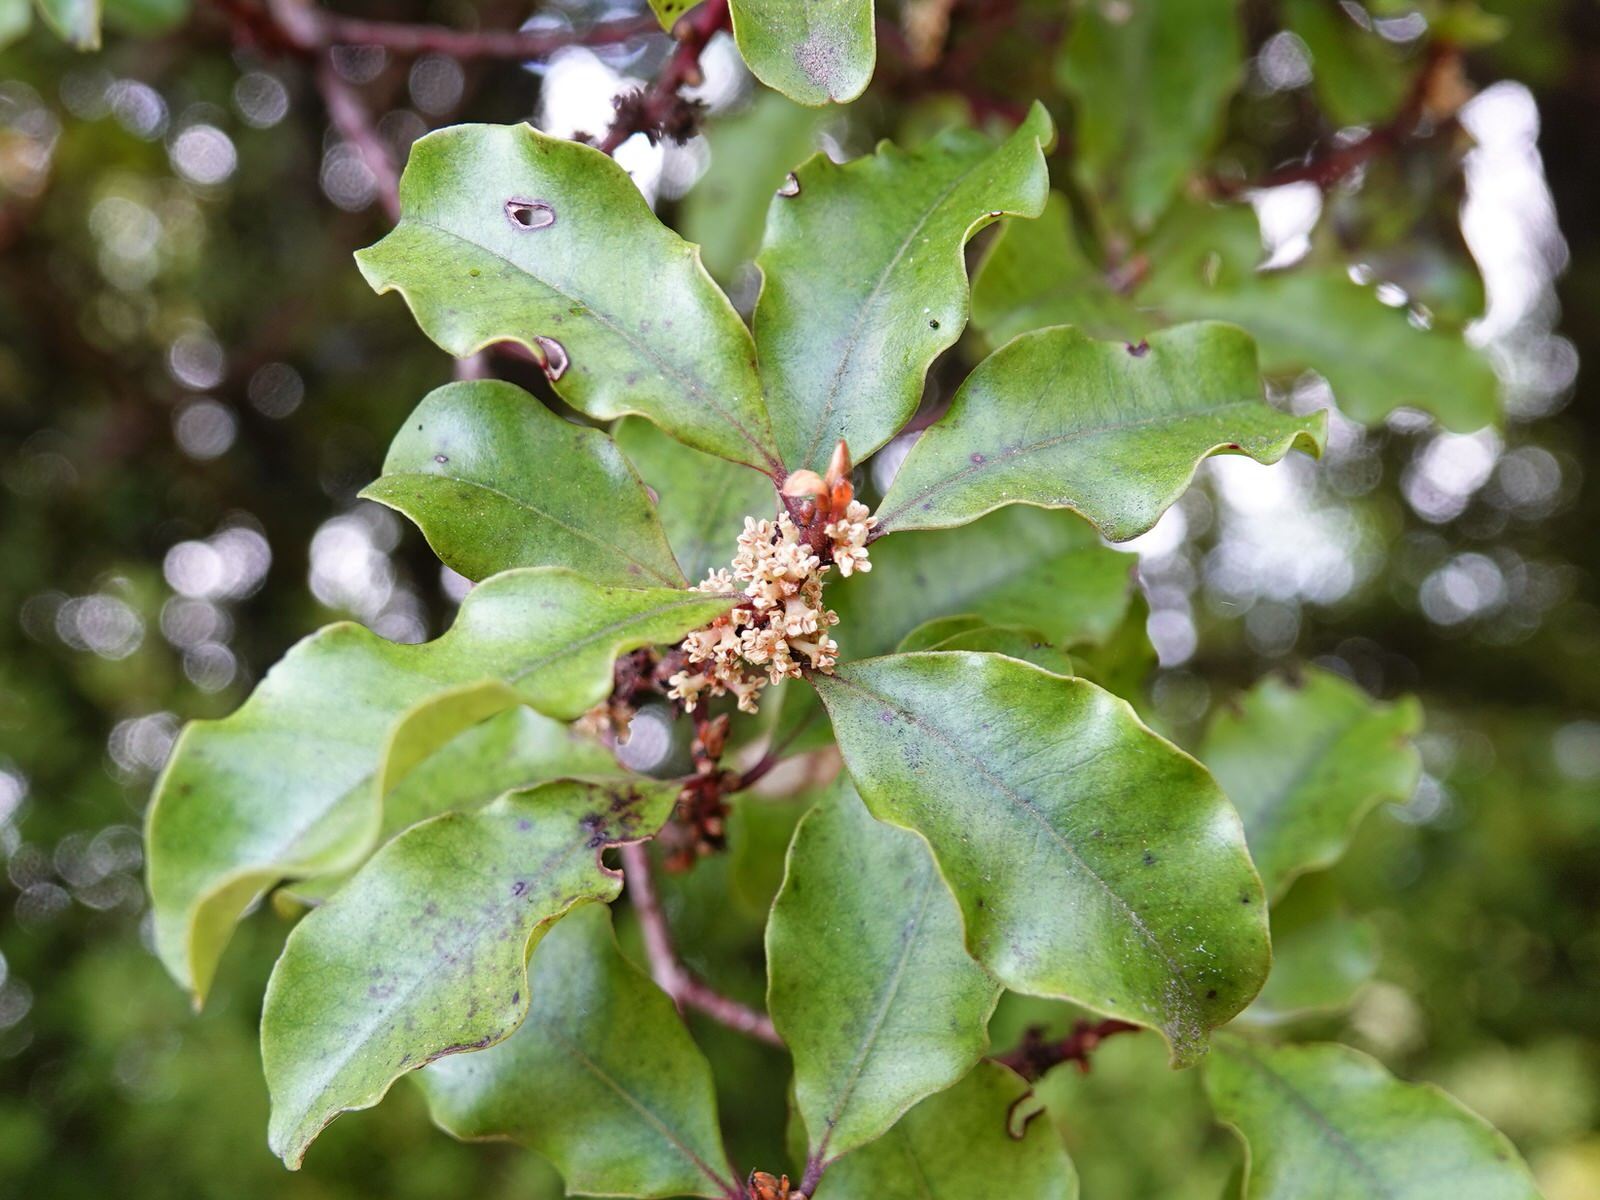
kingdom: Plantae
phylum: Tracheophyta
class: Magnoliopsida
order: Ericales
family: Primulaceae
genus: Myrsine
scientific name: Myrsine australis
